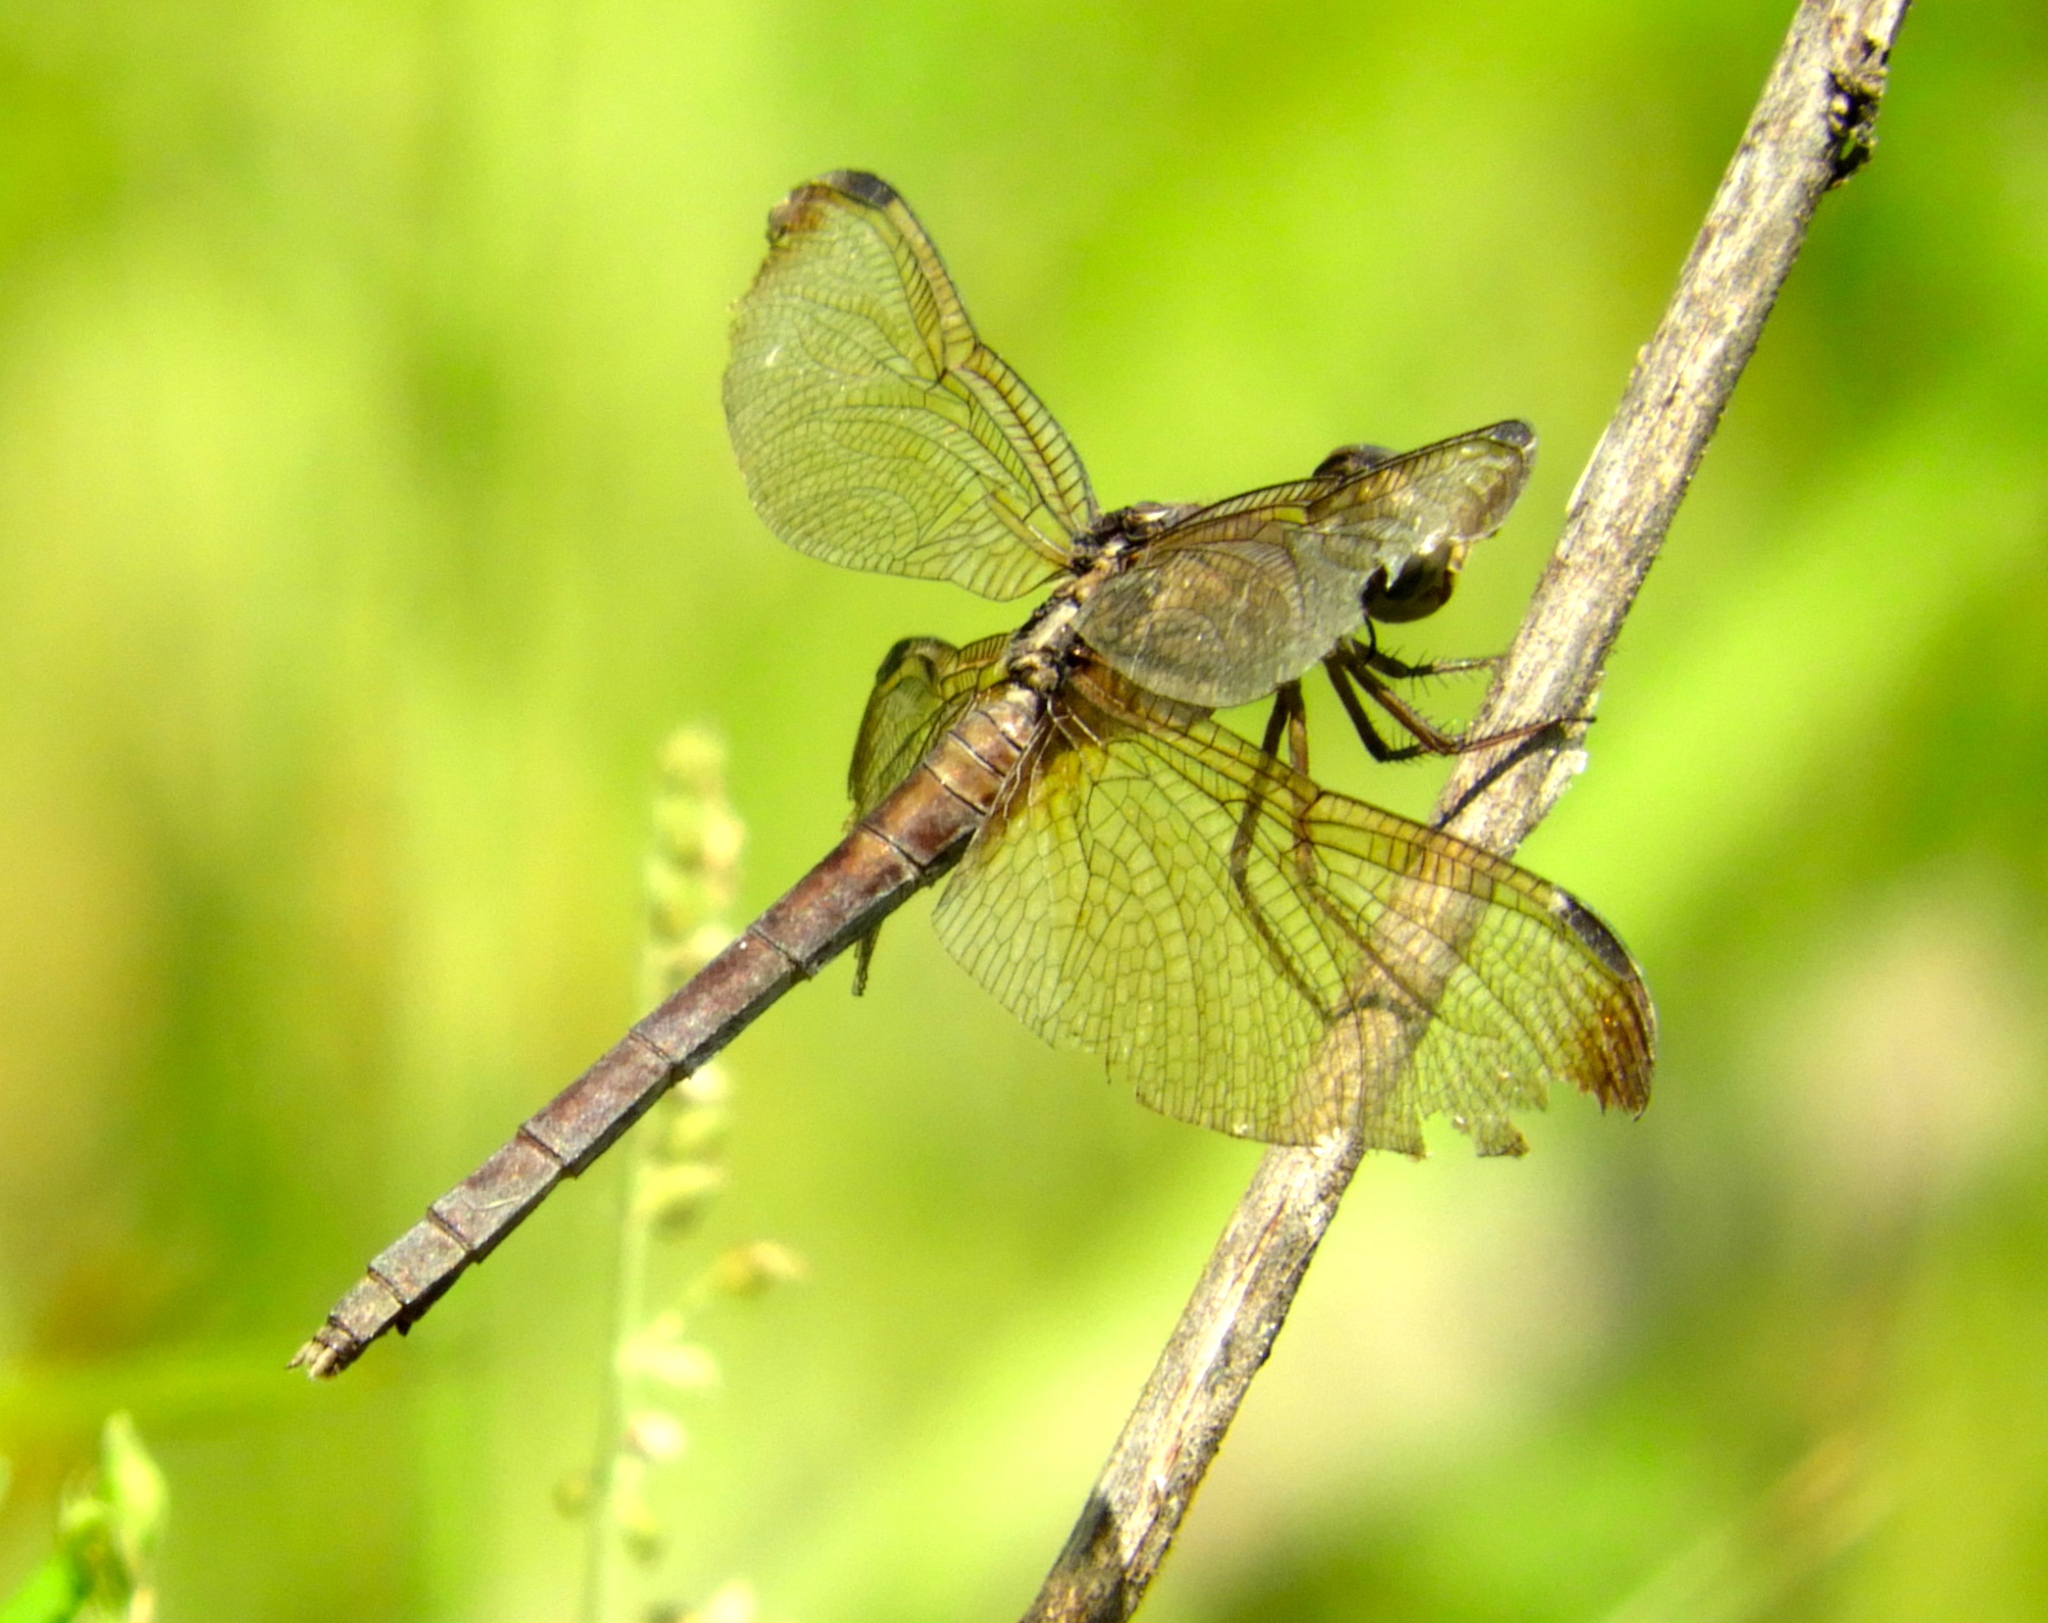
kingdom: Animalia
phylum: Arthropoda
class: Insecta
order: Odonata
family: Libellulidae
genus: Erythrodiplax
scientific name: Erythrodiplax funerea
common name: Black-winged dragonlet
